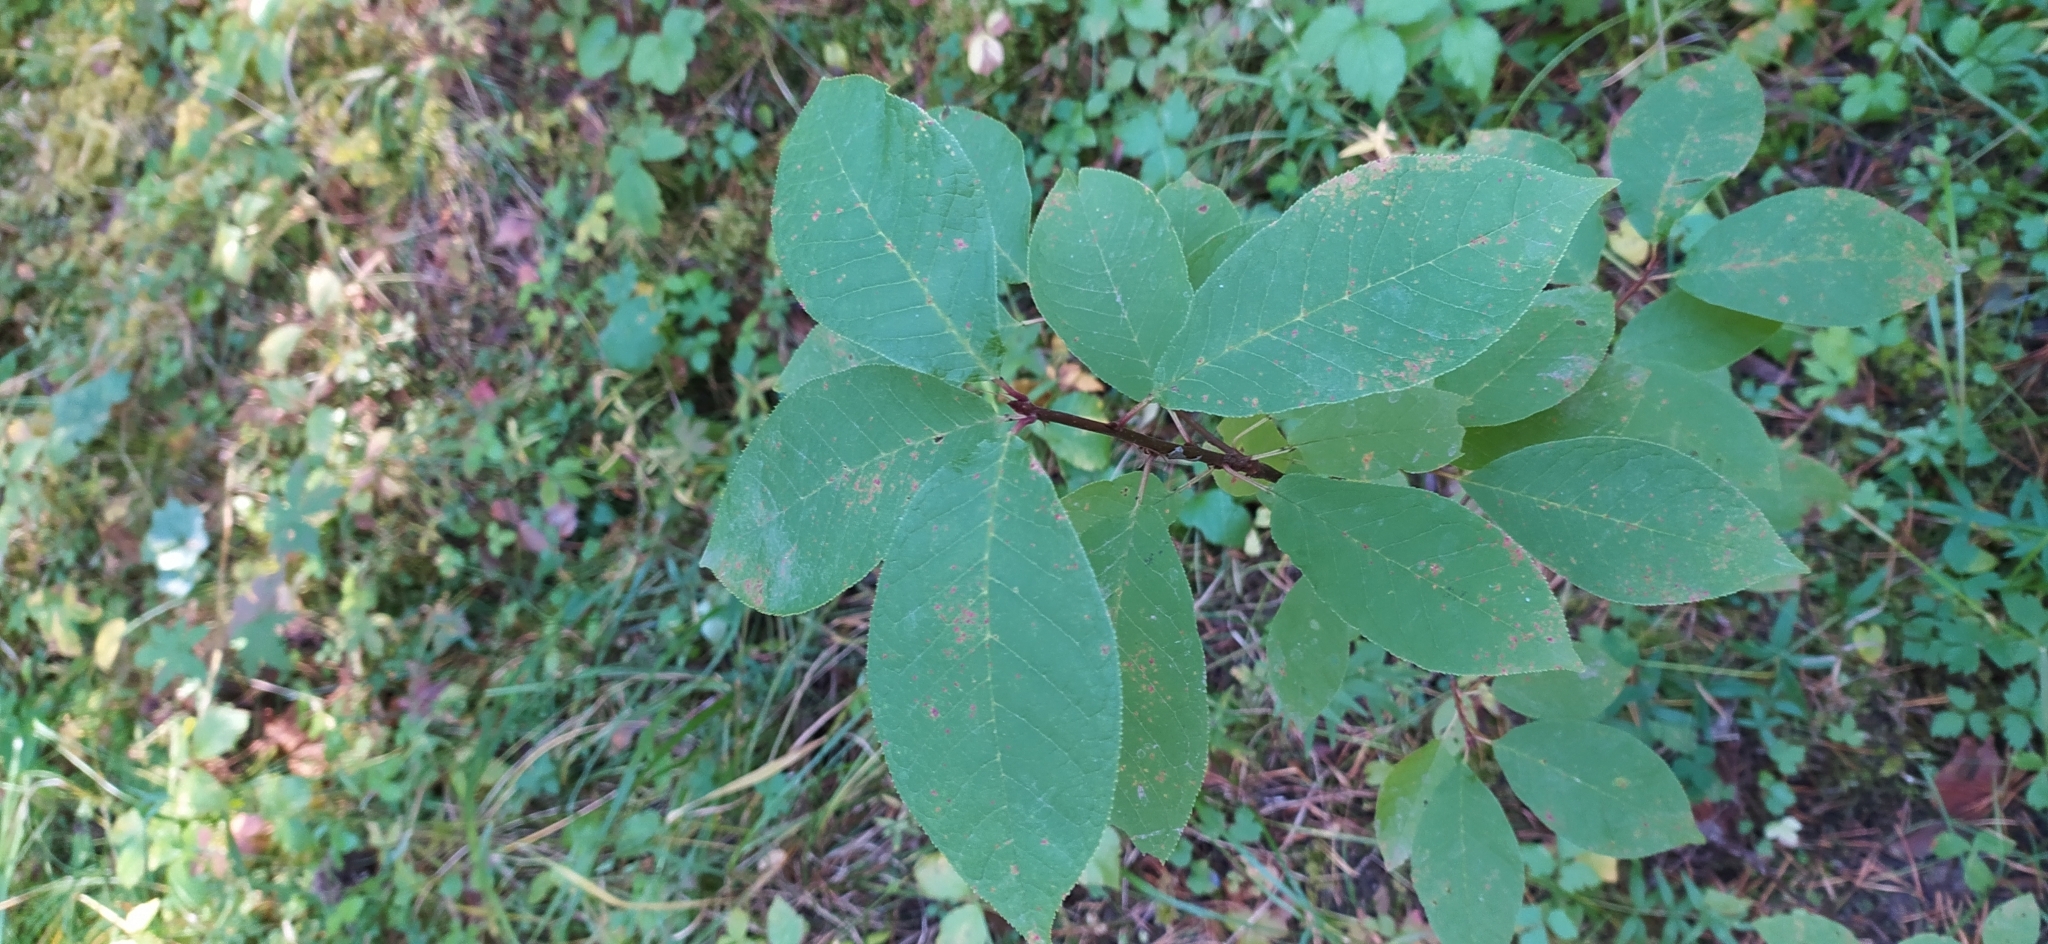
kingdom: Plantae
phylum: Tracheophyta
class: Magnoliopsida
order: Rosales
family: Rosaceae
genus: Prunus
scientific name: Prunus padus
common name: Bird cherry
